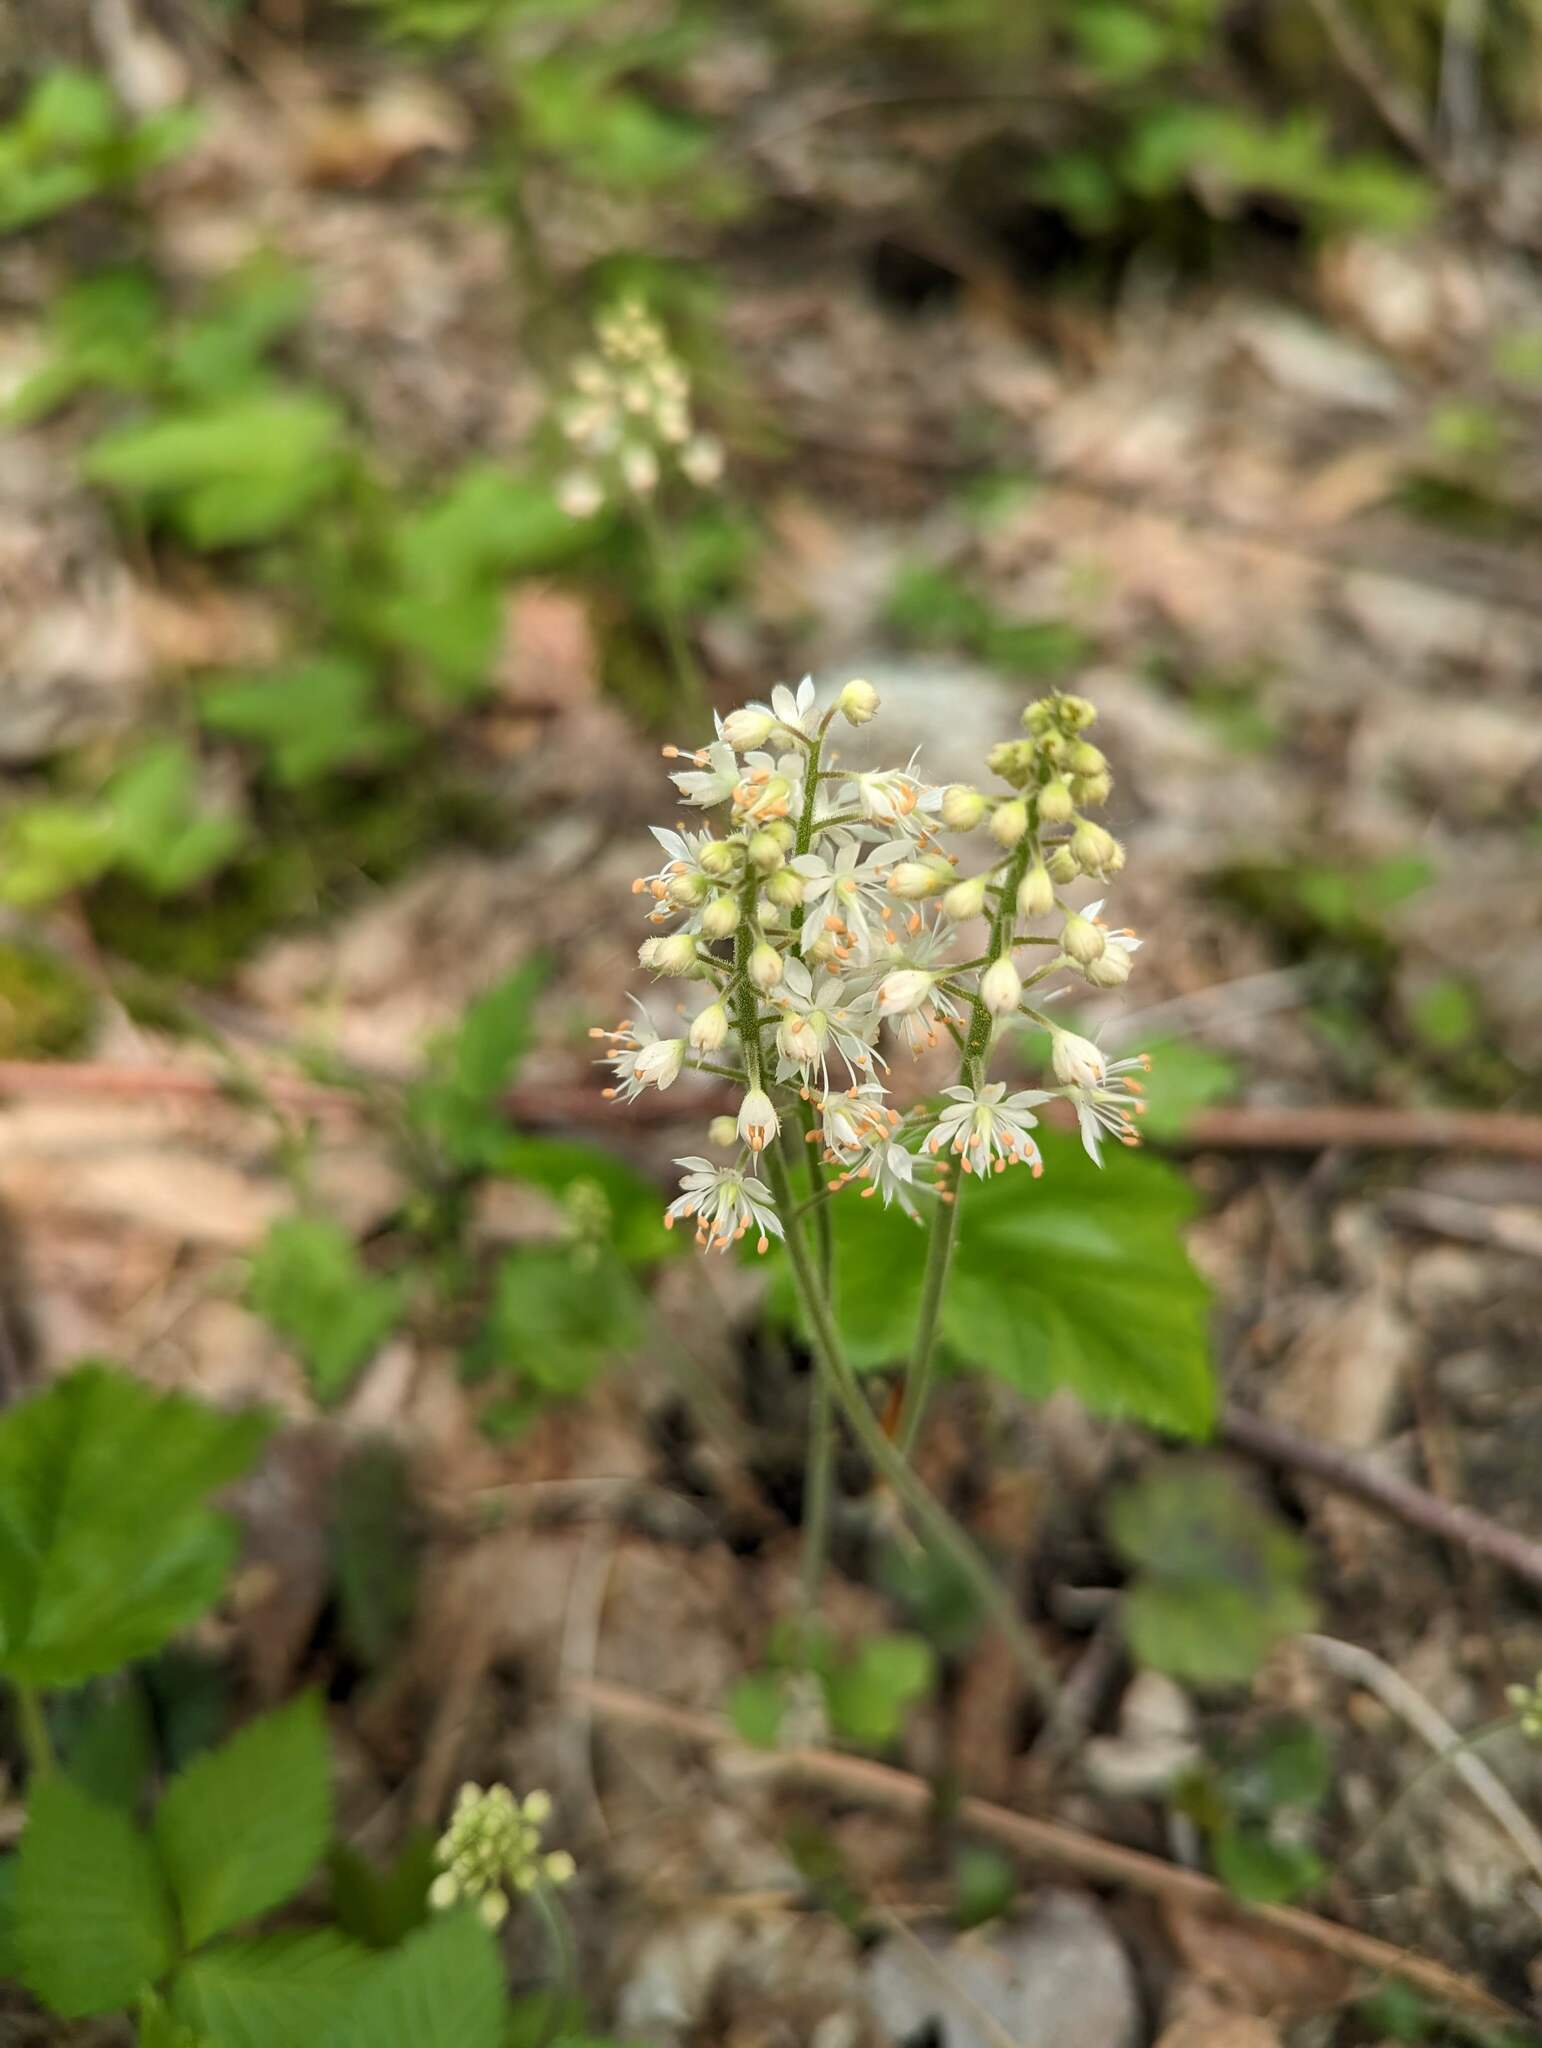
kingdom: Plantae
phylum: Tracheophyta
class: Magnoliopsida
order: Saxifragales
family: Saxifragaceae
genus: Tiarella
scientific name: Tiarella stolonifera
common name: Stoloniferous foamflower
